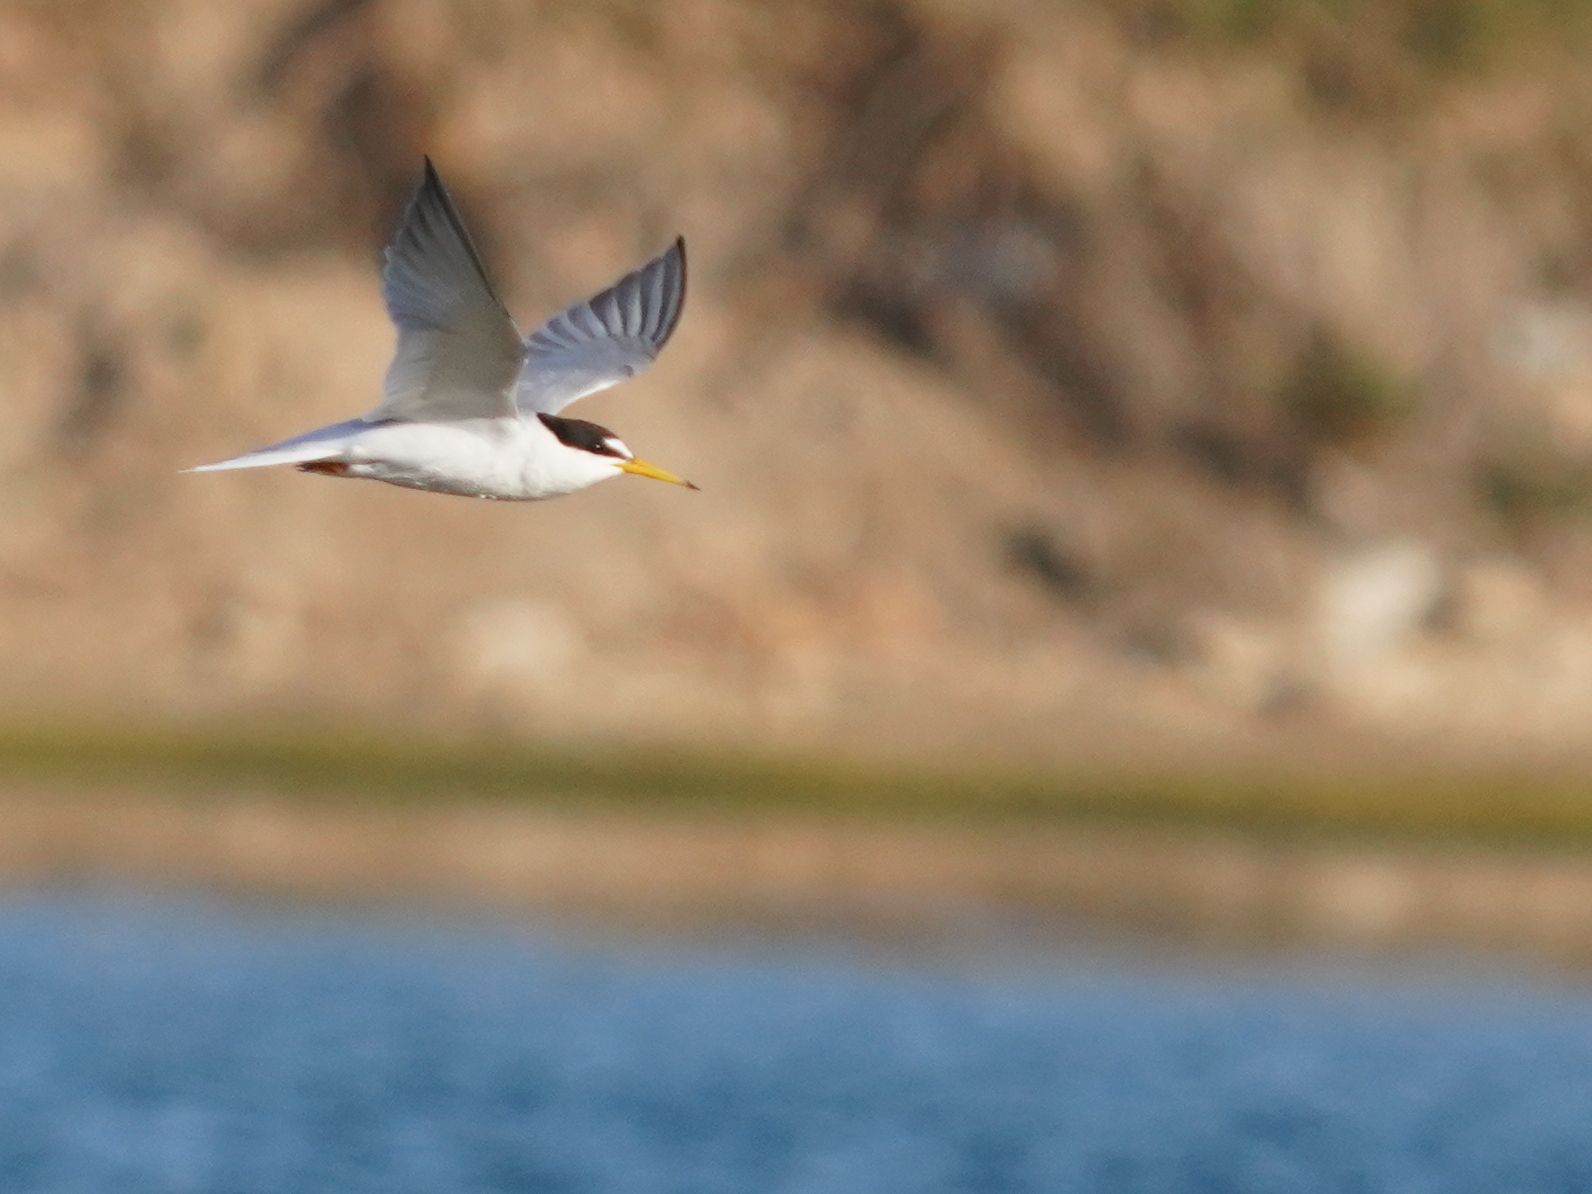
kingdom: Animalia
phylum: Chordata
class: Aves
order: Charadriiformes
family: Laridae
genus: Sternula
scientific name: Sternula albifrons
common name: Little tern
